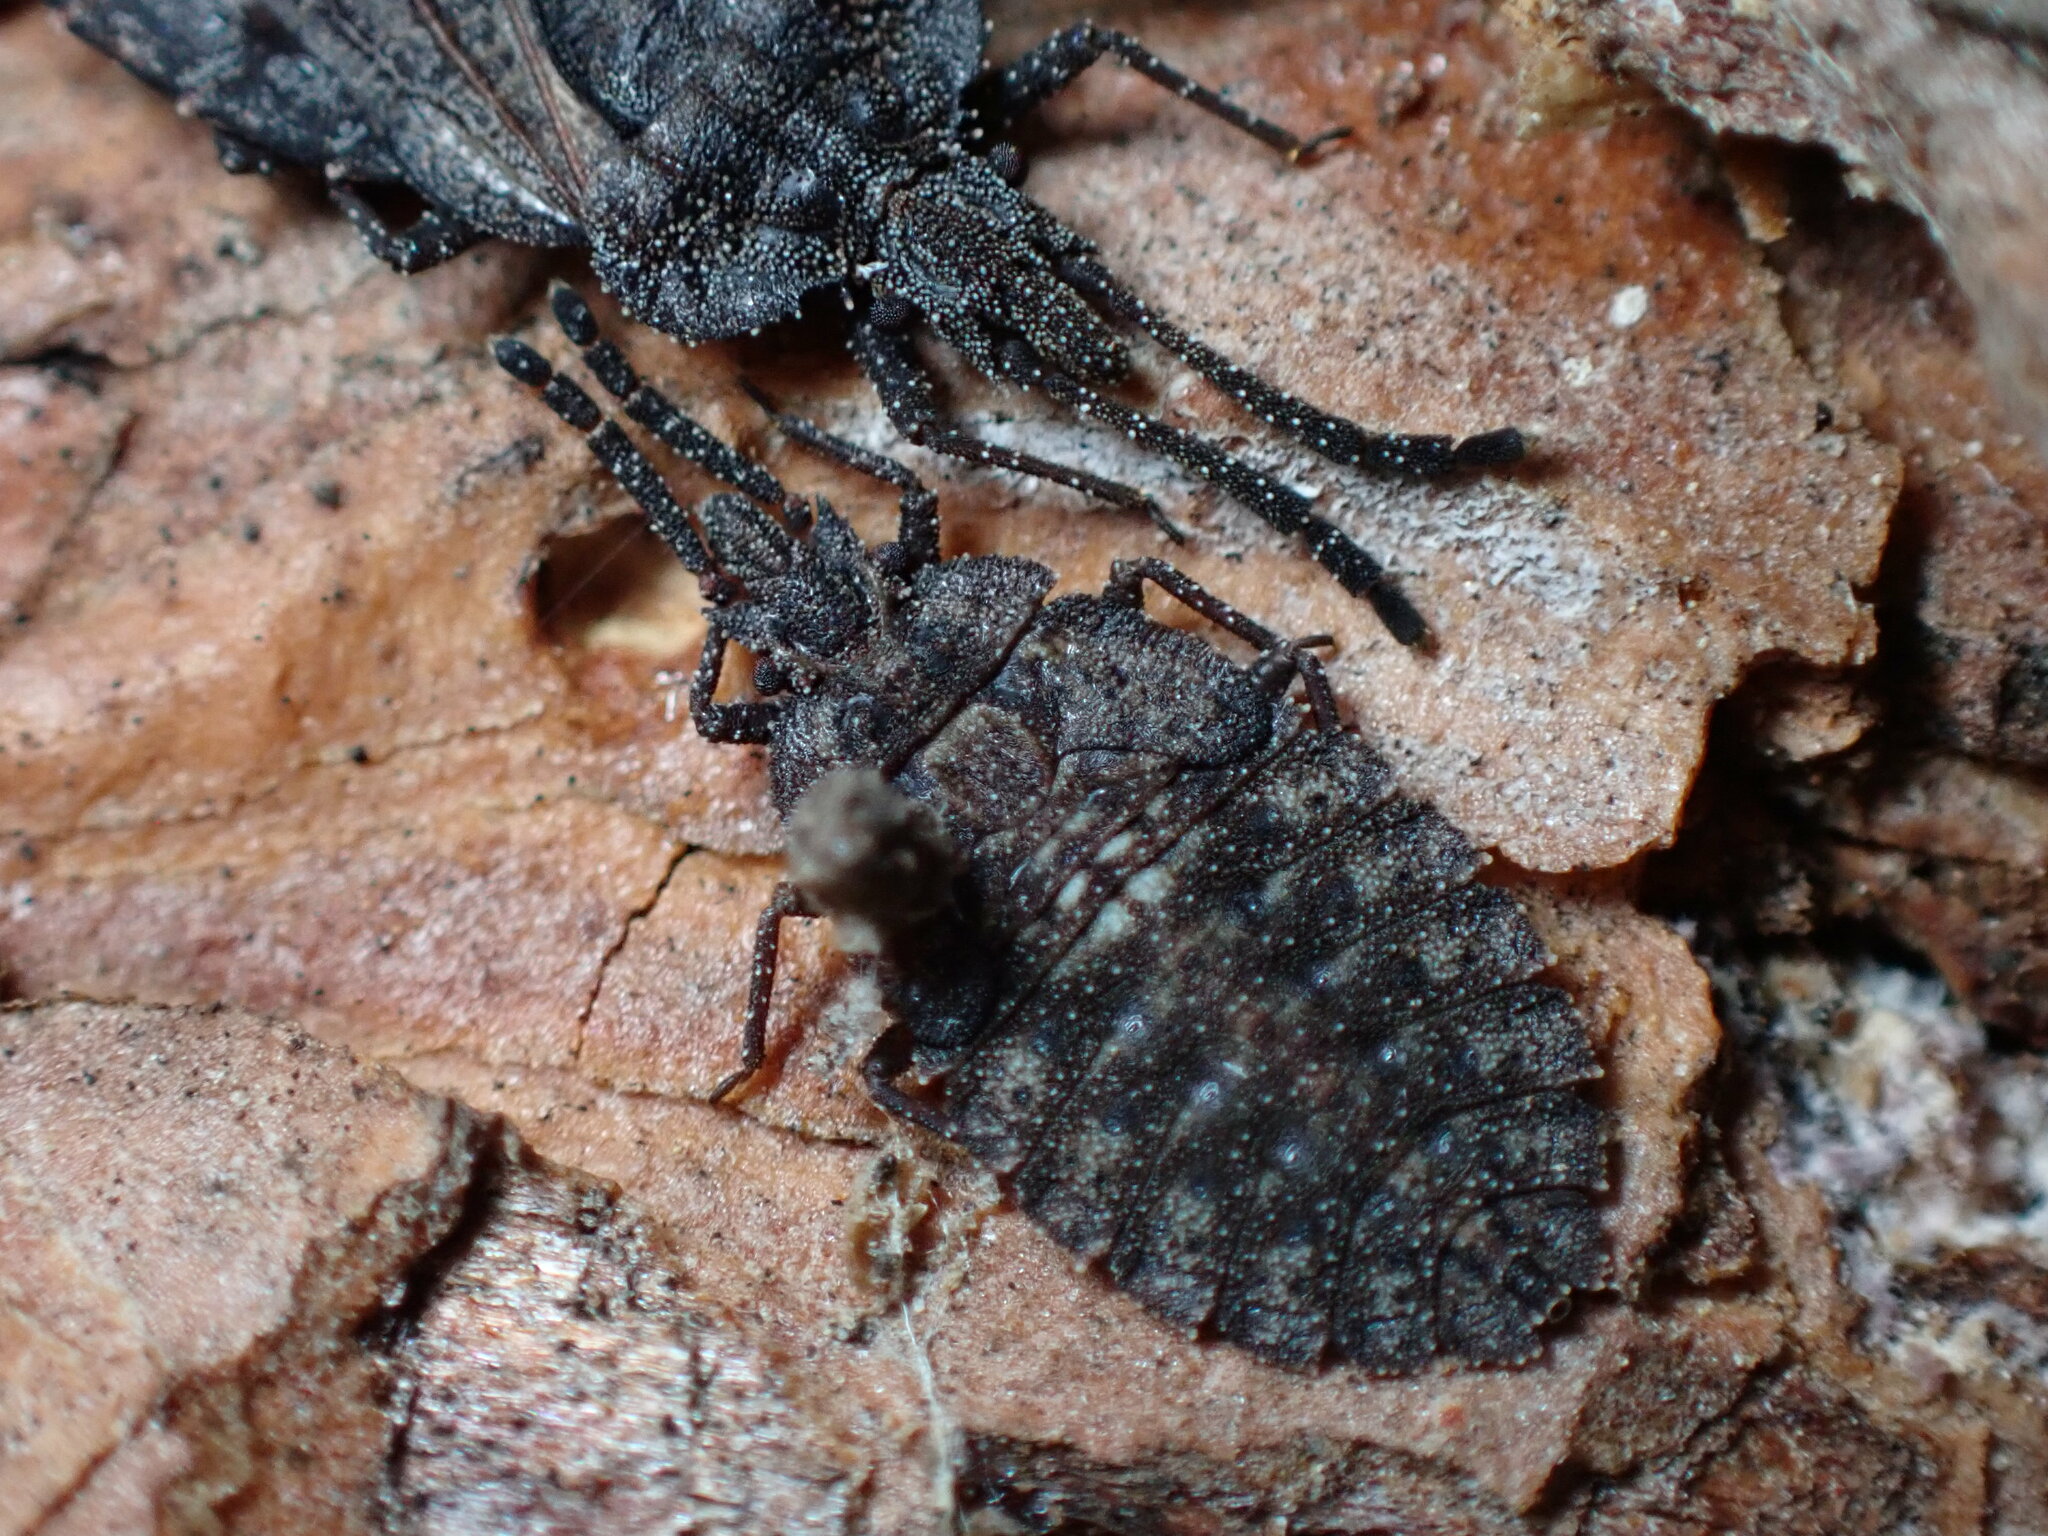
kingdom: Animalia
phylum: Arthropoda
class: Insecta
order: Hemiptera
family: Aradidae
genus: Aradus
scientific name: Aradus inornatus
